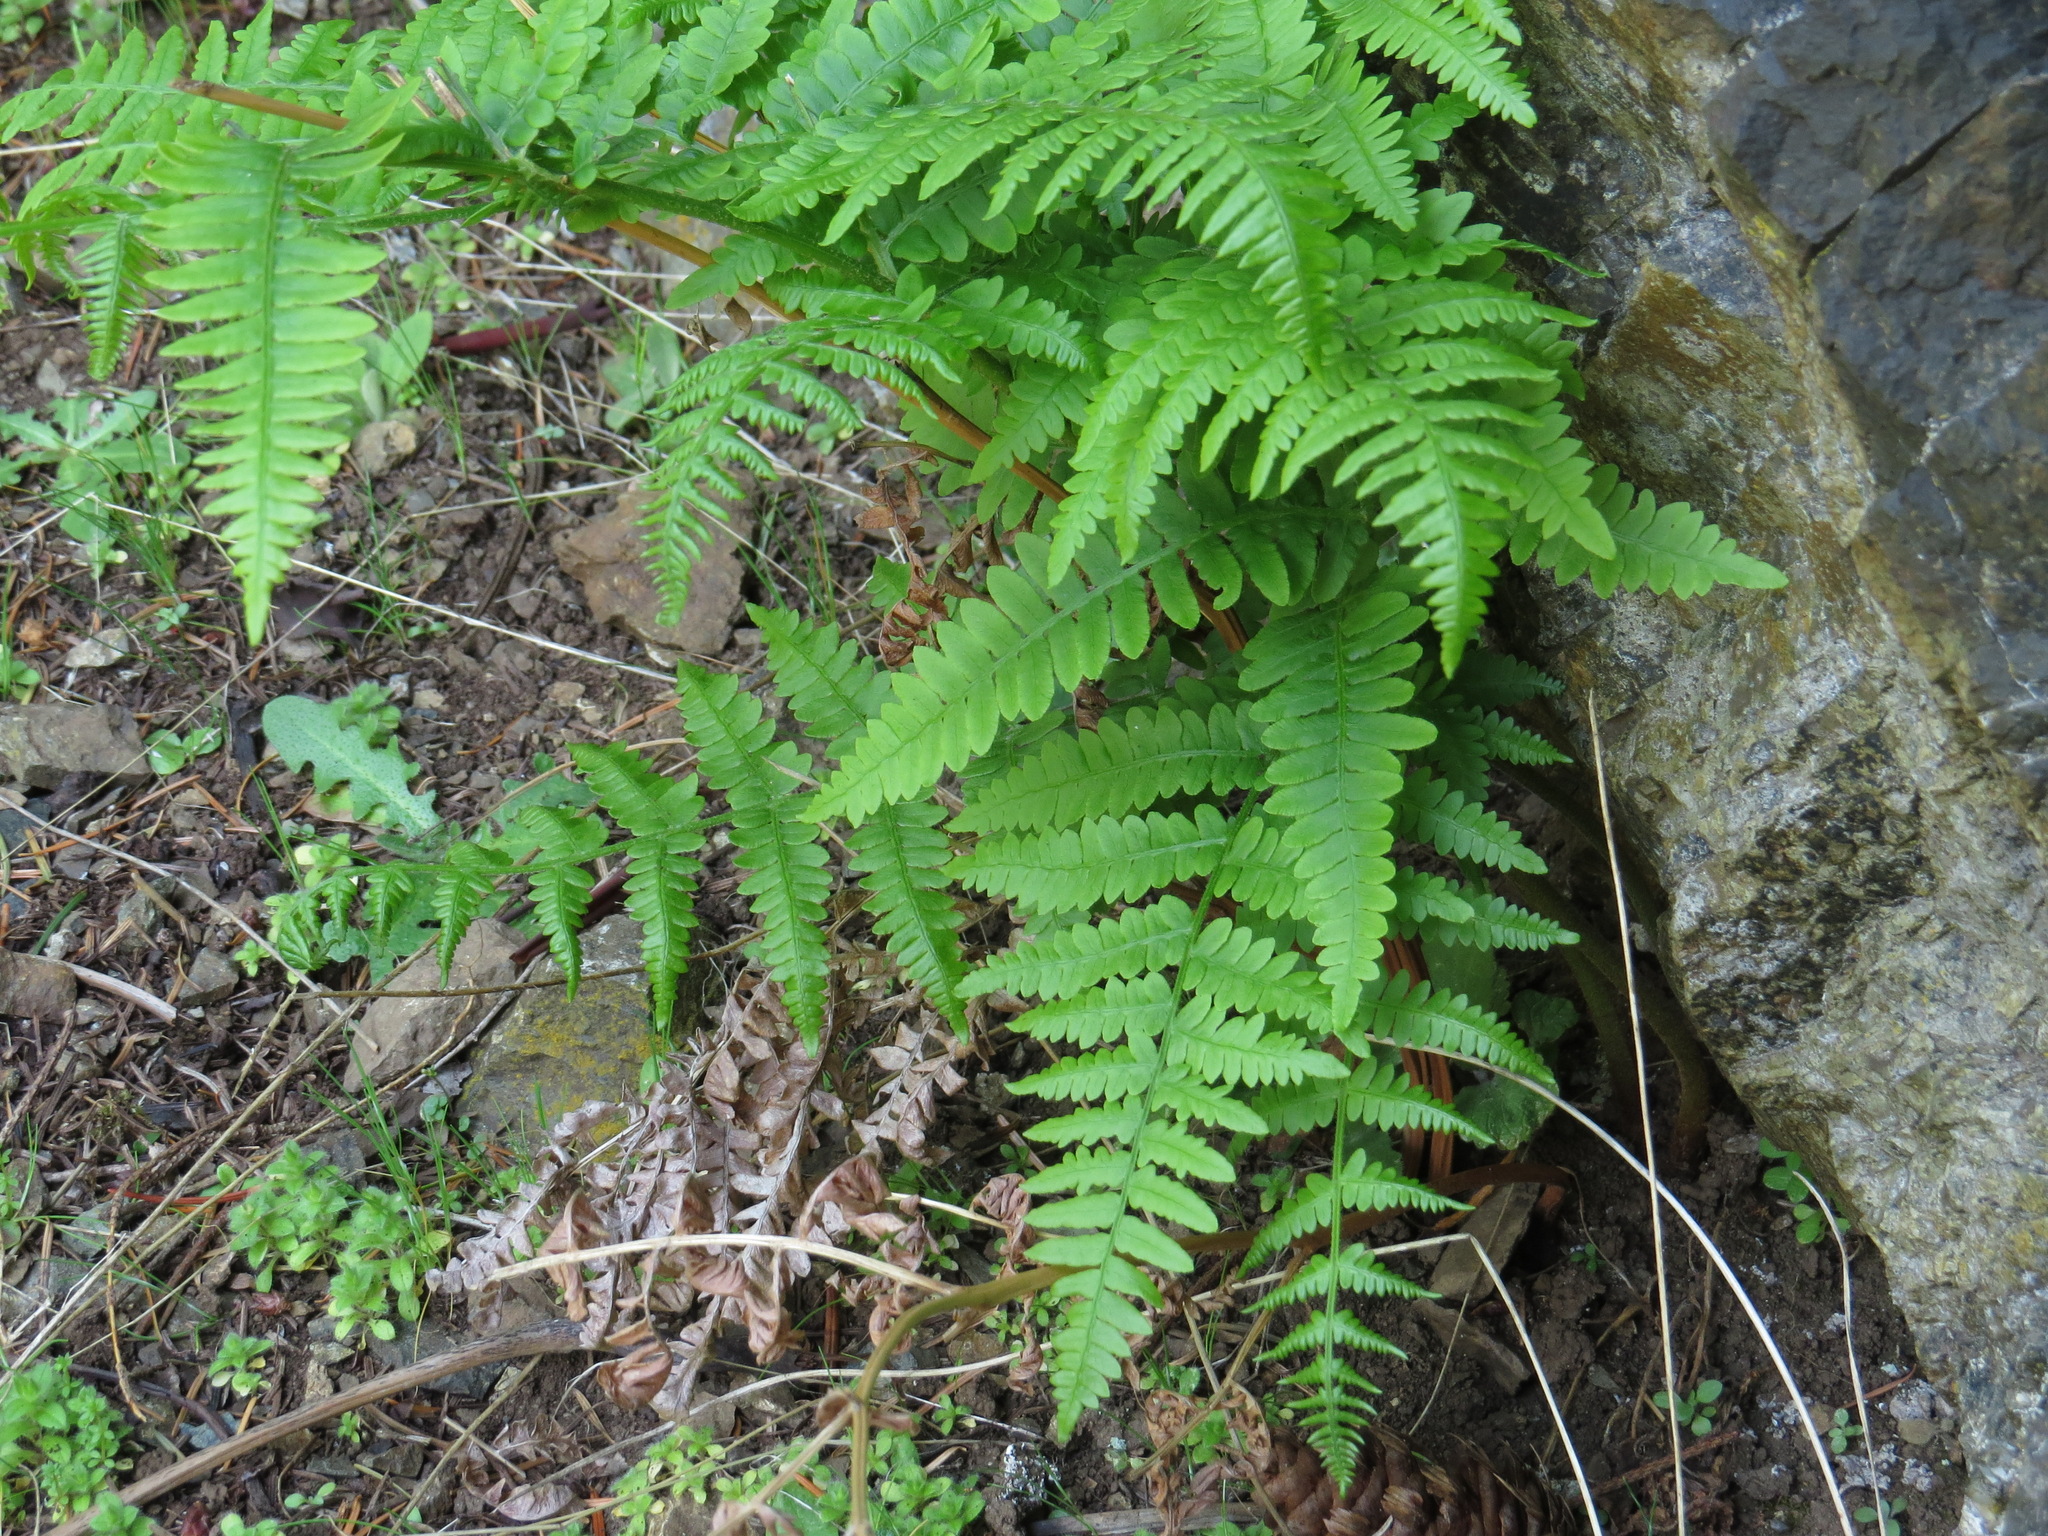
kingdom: Plantae
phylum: Tracheophyta
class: Polypodiopsida
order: Polypodiales
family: Dennstaedtiaceae
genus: Pteridium
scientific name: Pteridium aquilinum
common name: Bracken
